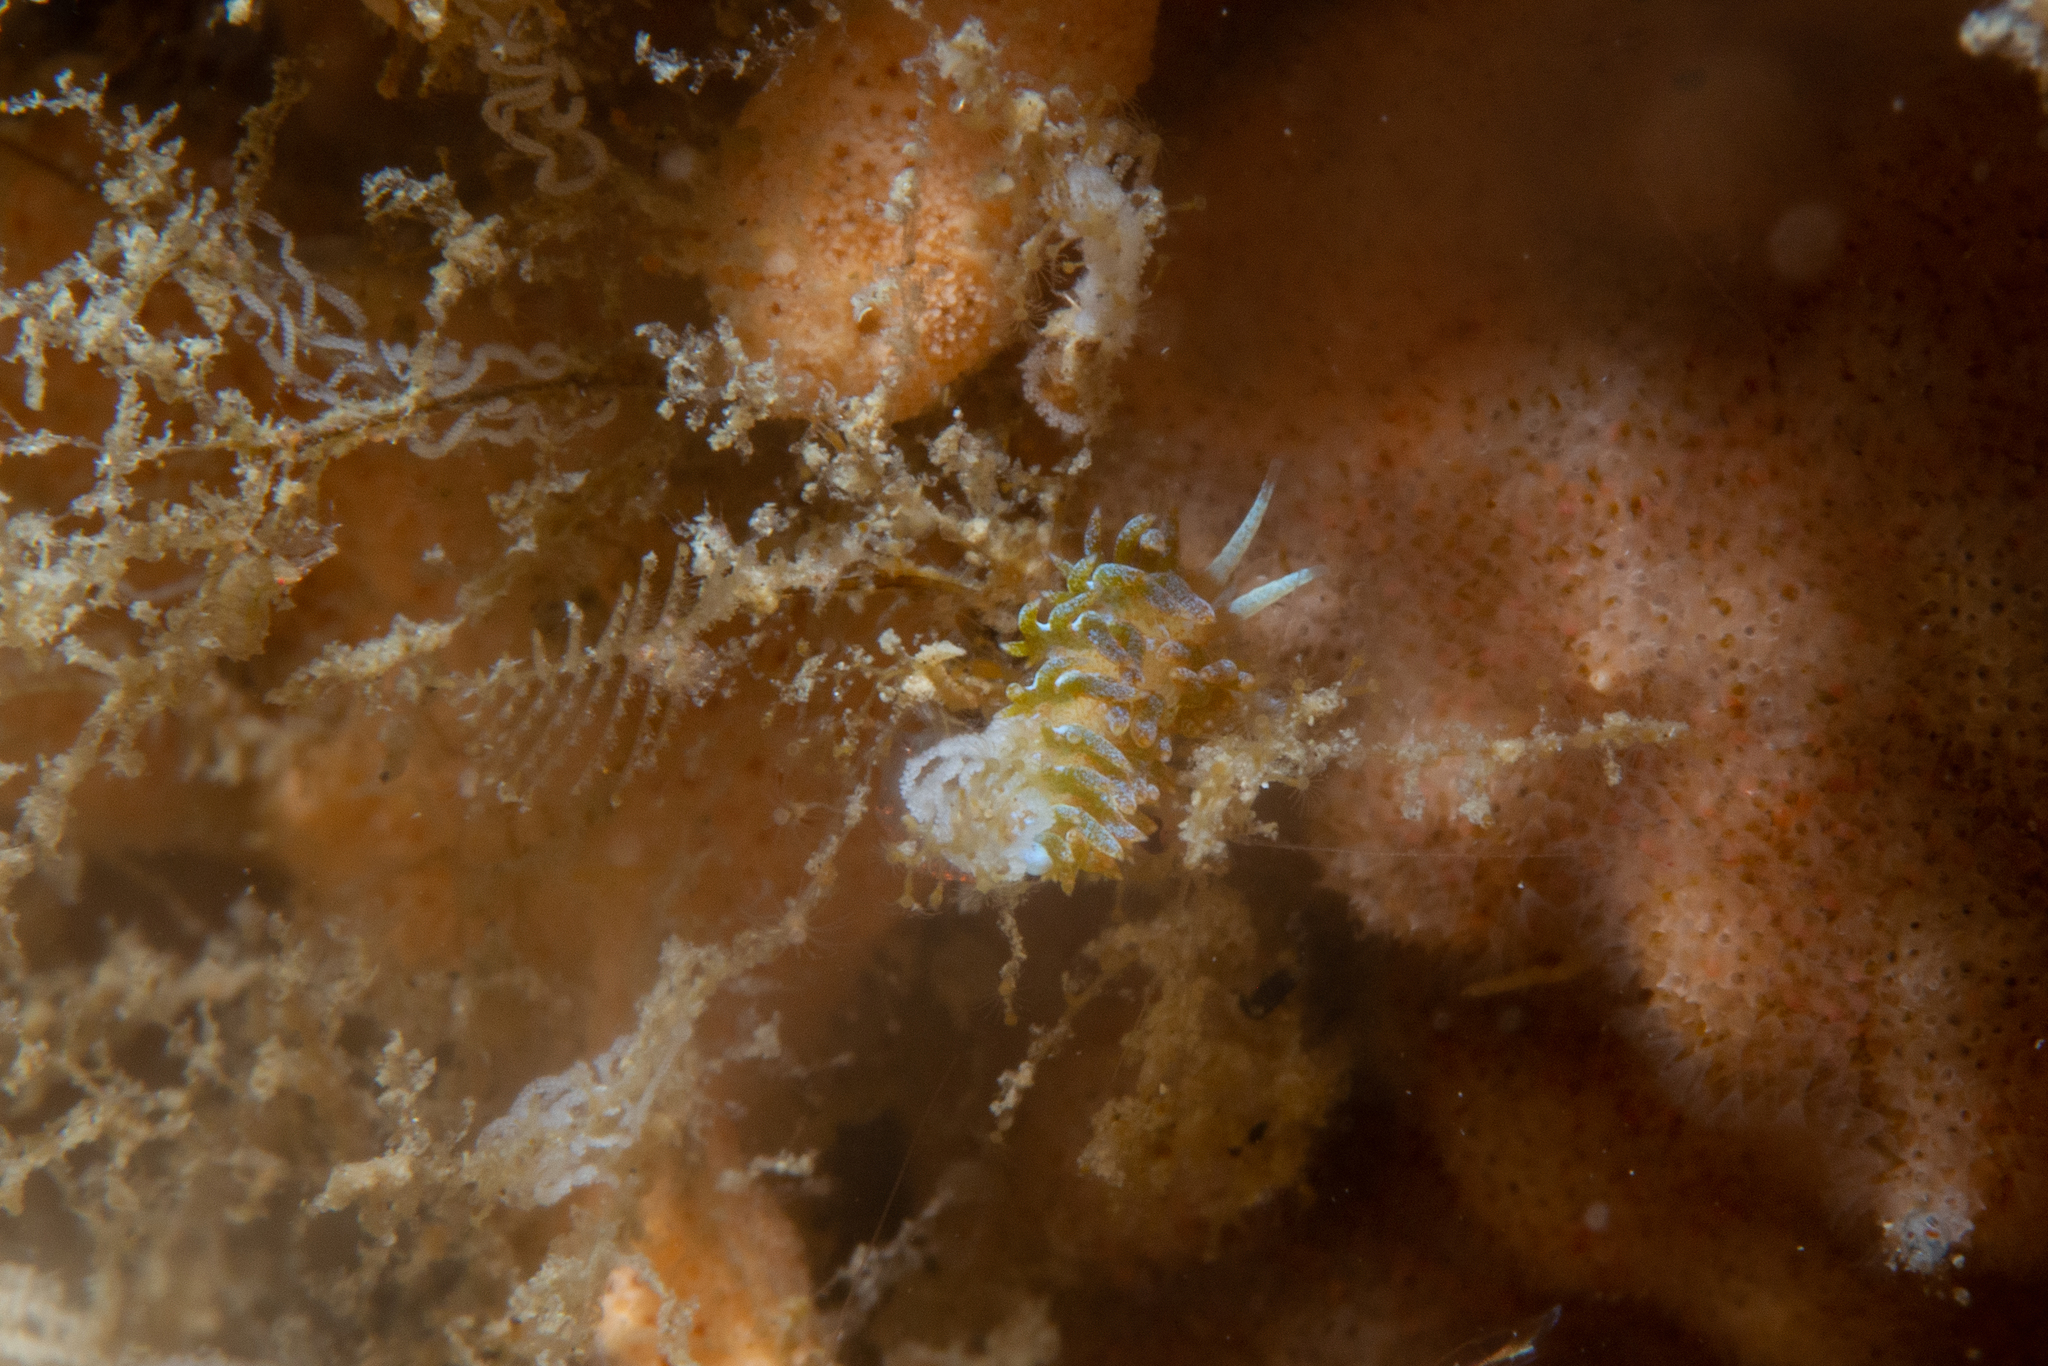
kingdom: Animalia
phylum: Mollusca
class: Gastropoda
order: Nudibranchia
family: Apataidae
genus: Tularia
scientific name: Tularia bractea
